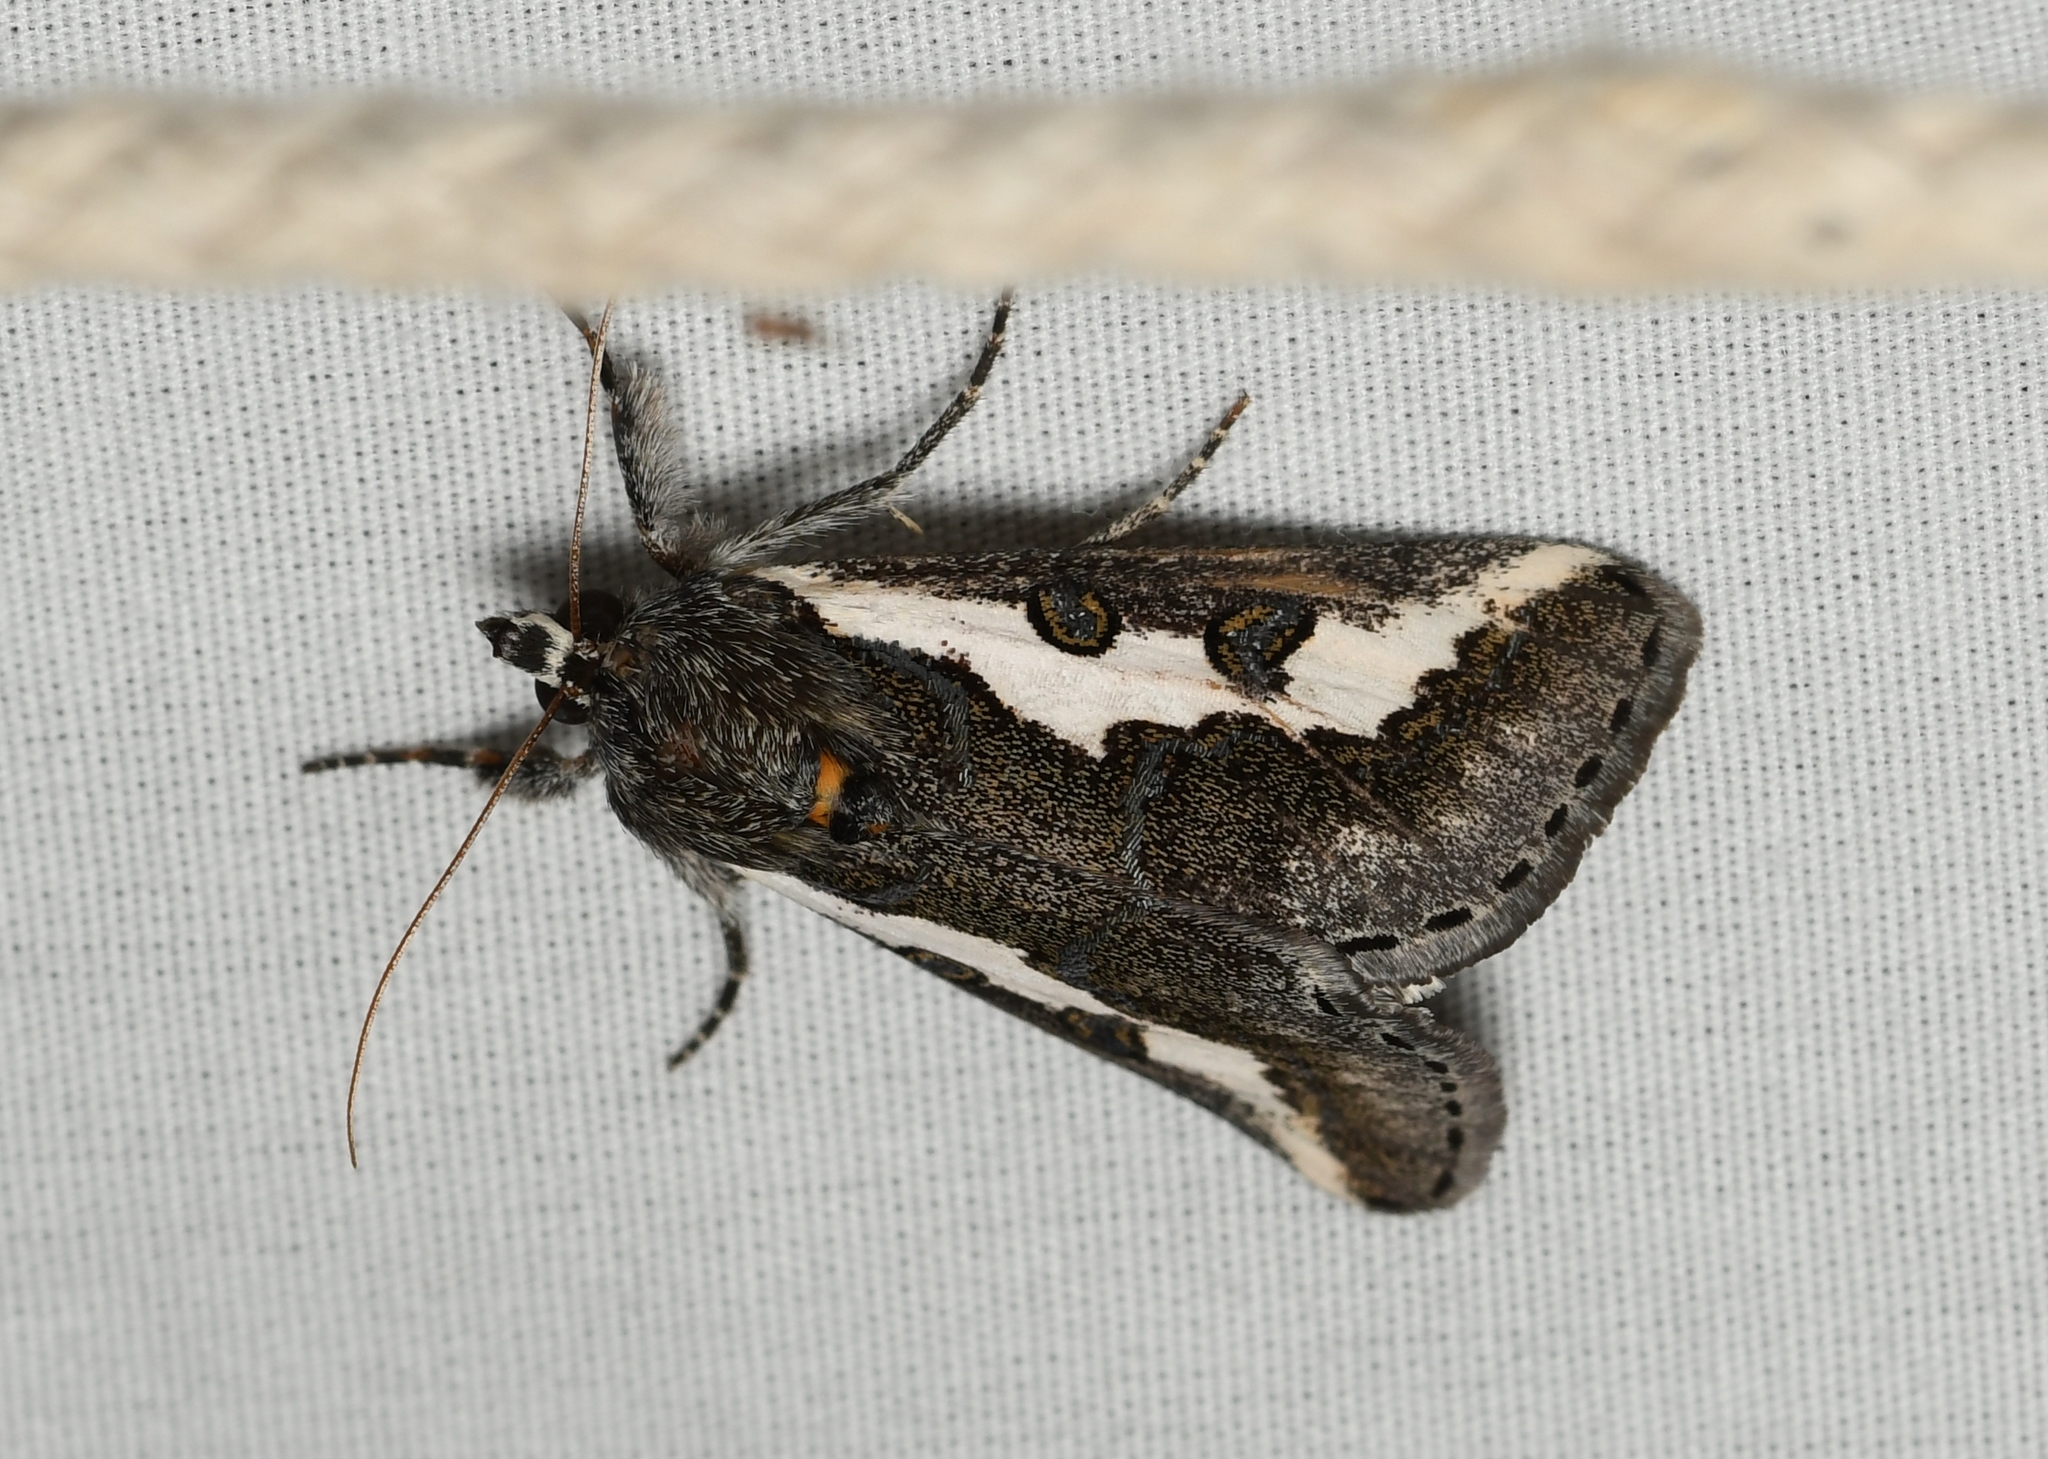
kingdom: Animalia
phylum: Arthropoda
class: Insecta
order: Lepidoptera
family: Noctuidae
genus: Euscirrhopterus
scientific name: Euscirrhopterus gloveri
